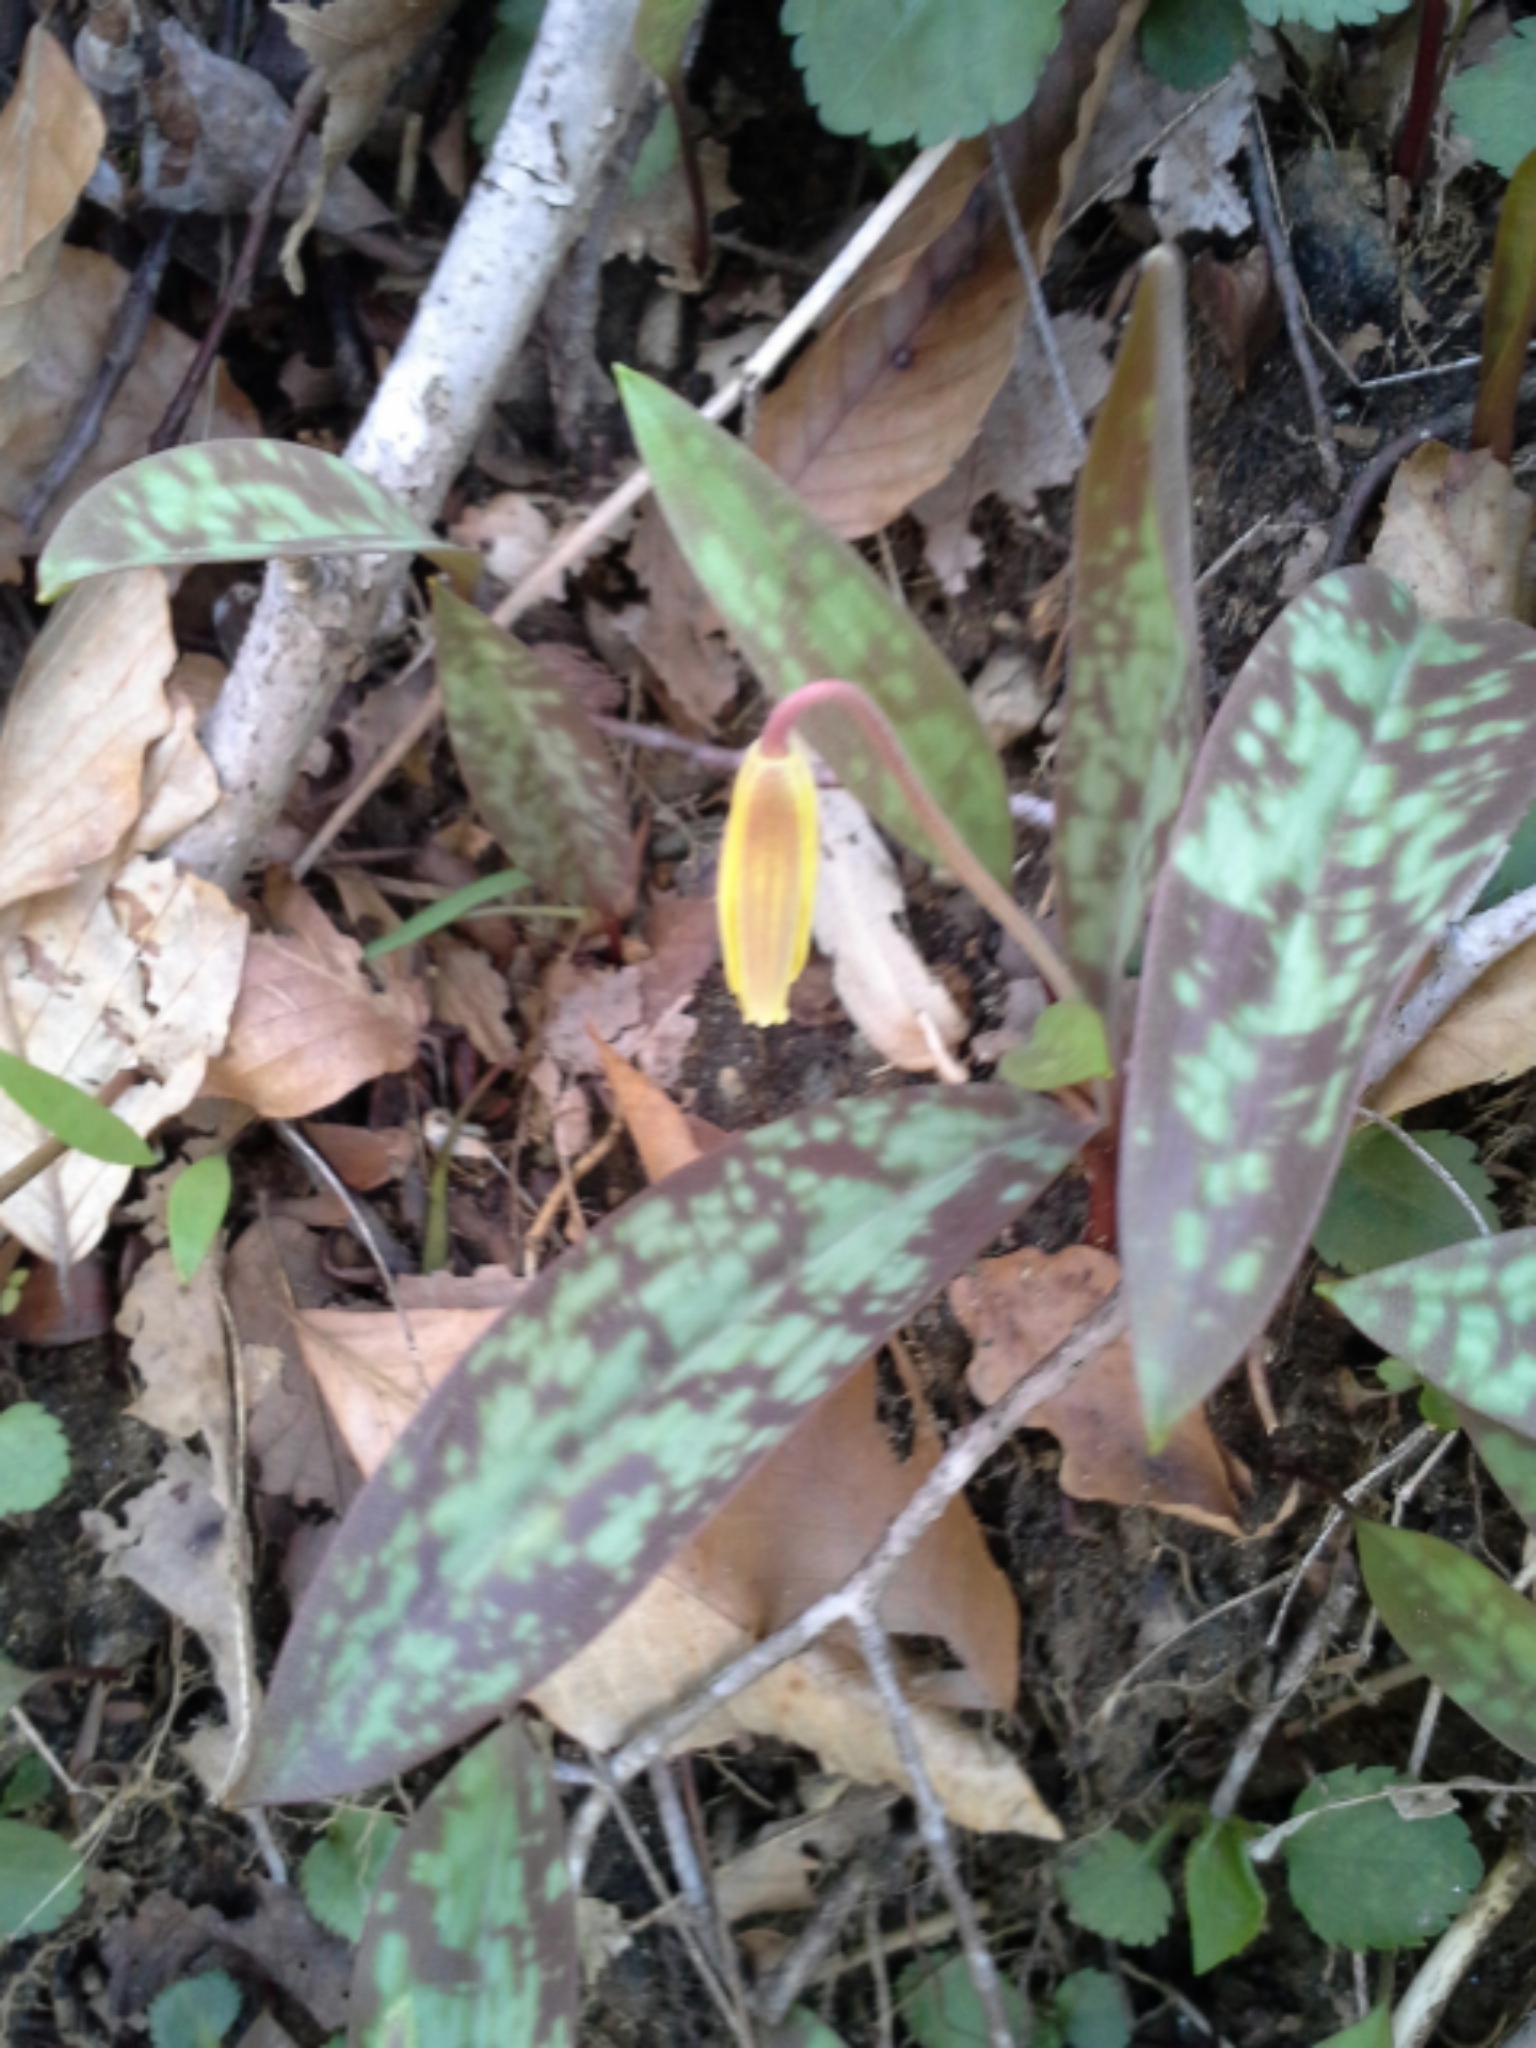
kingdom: Plantae
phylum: Tracheophyta
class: Liliopsida
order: Liliales
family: Liliaceae
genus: Erythronium
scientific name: Erythronium americanum
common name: Yellow adder's-tongue
